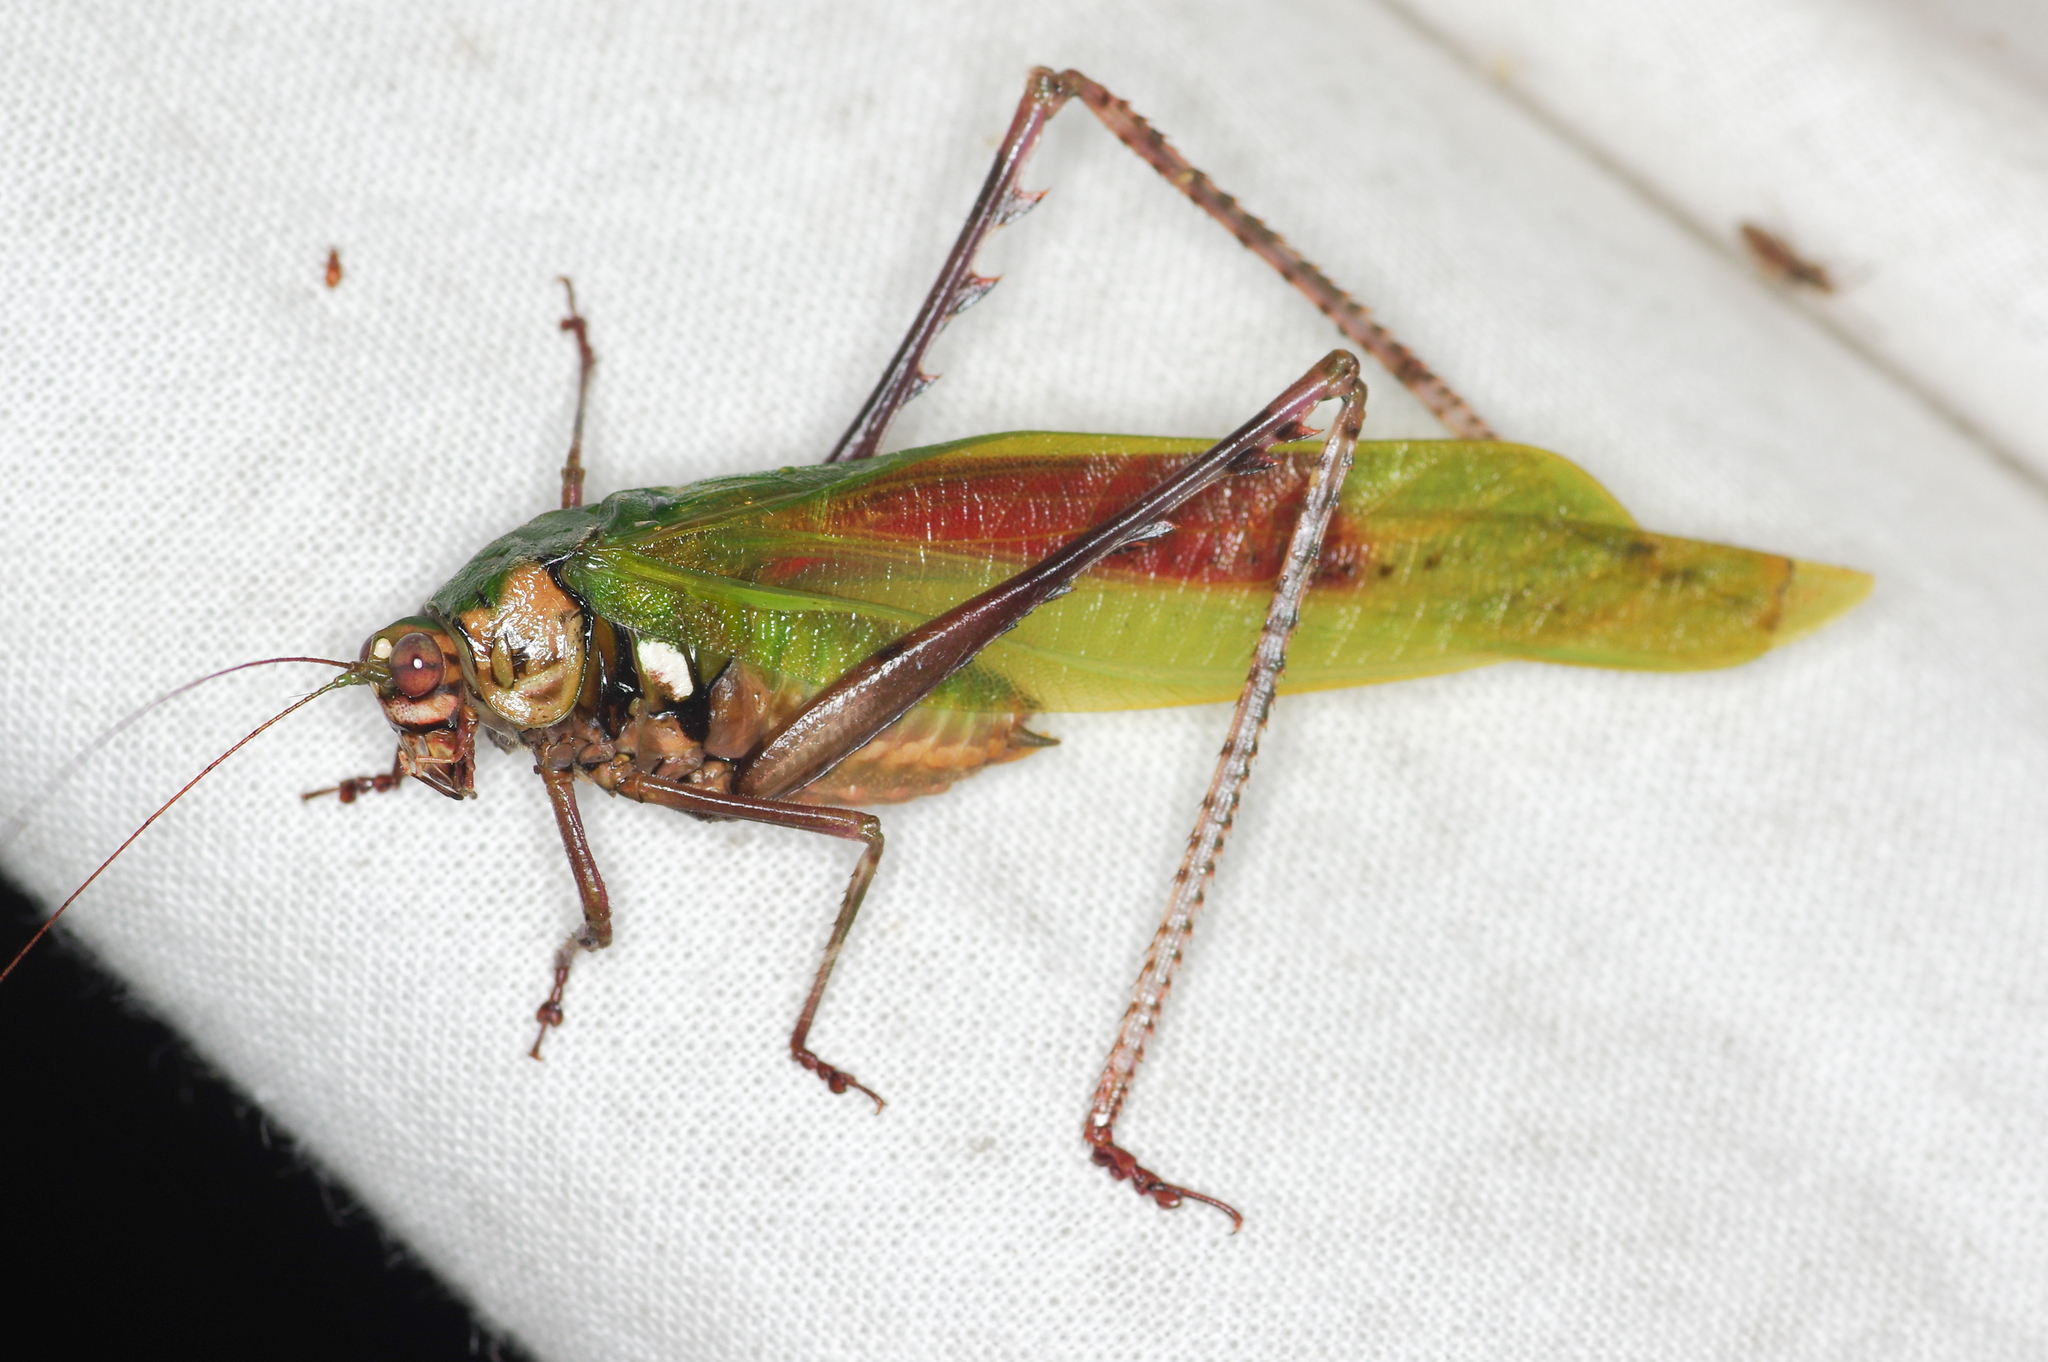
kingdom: Animalia
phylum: Arthropoda
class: Insecta
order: Orthoptera
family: Tettigoniidae
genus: Vellea
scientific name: Vellea cruenta
